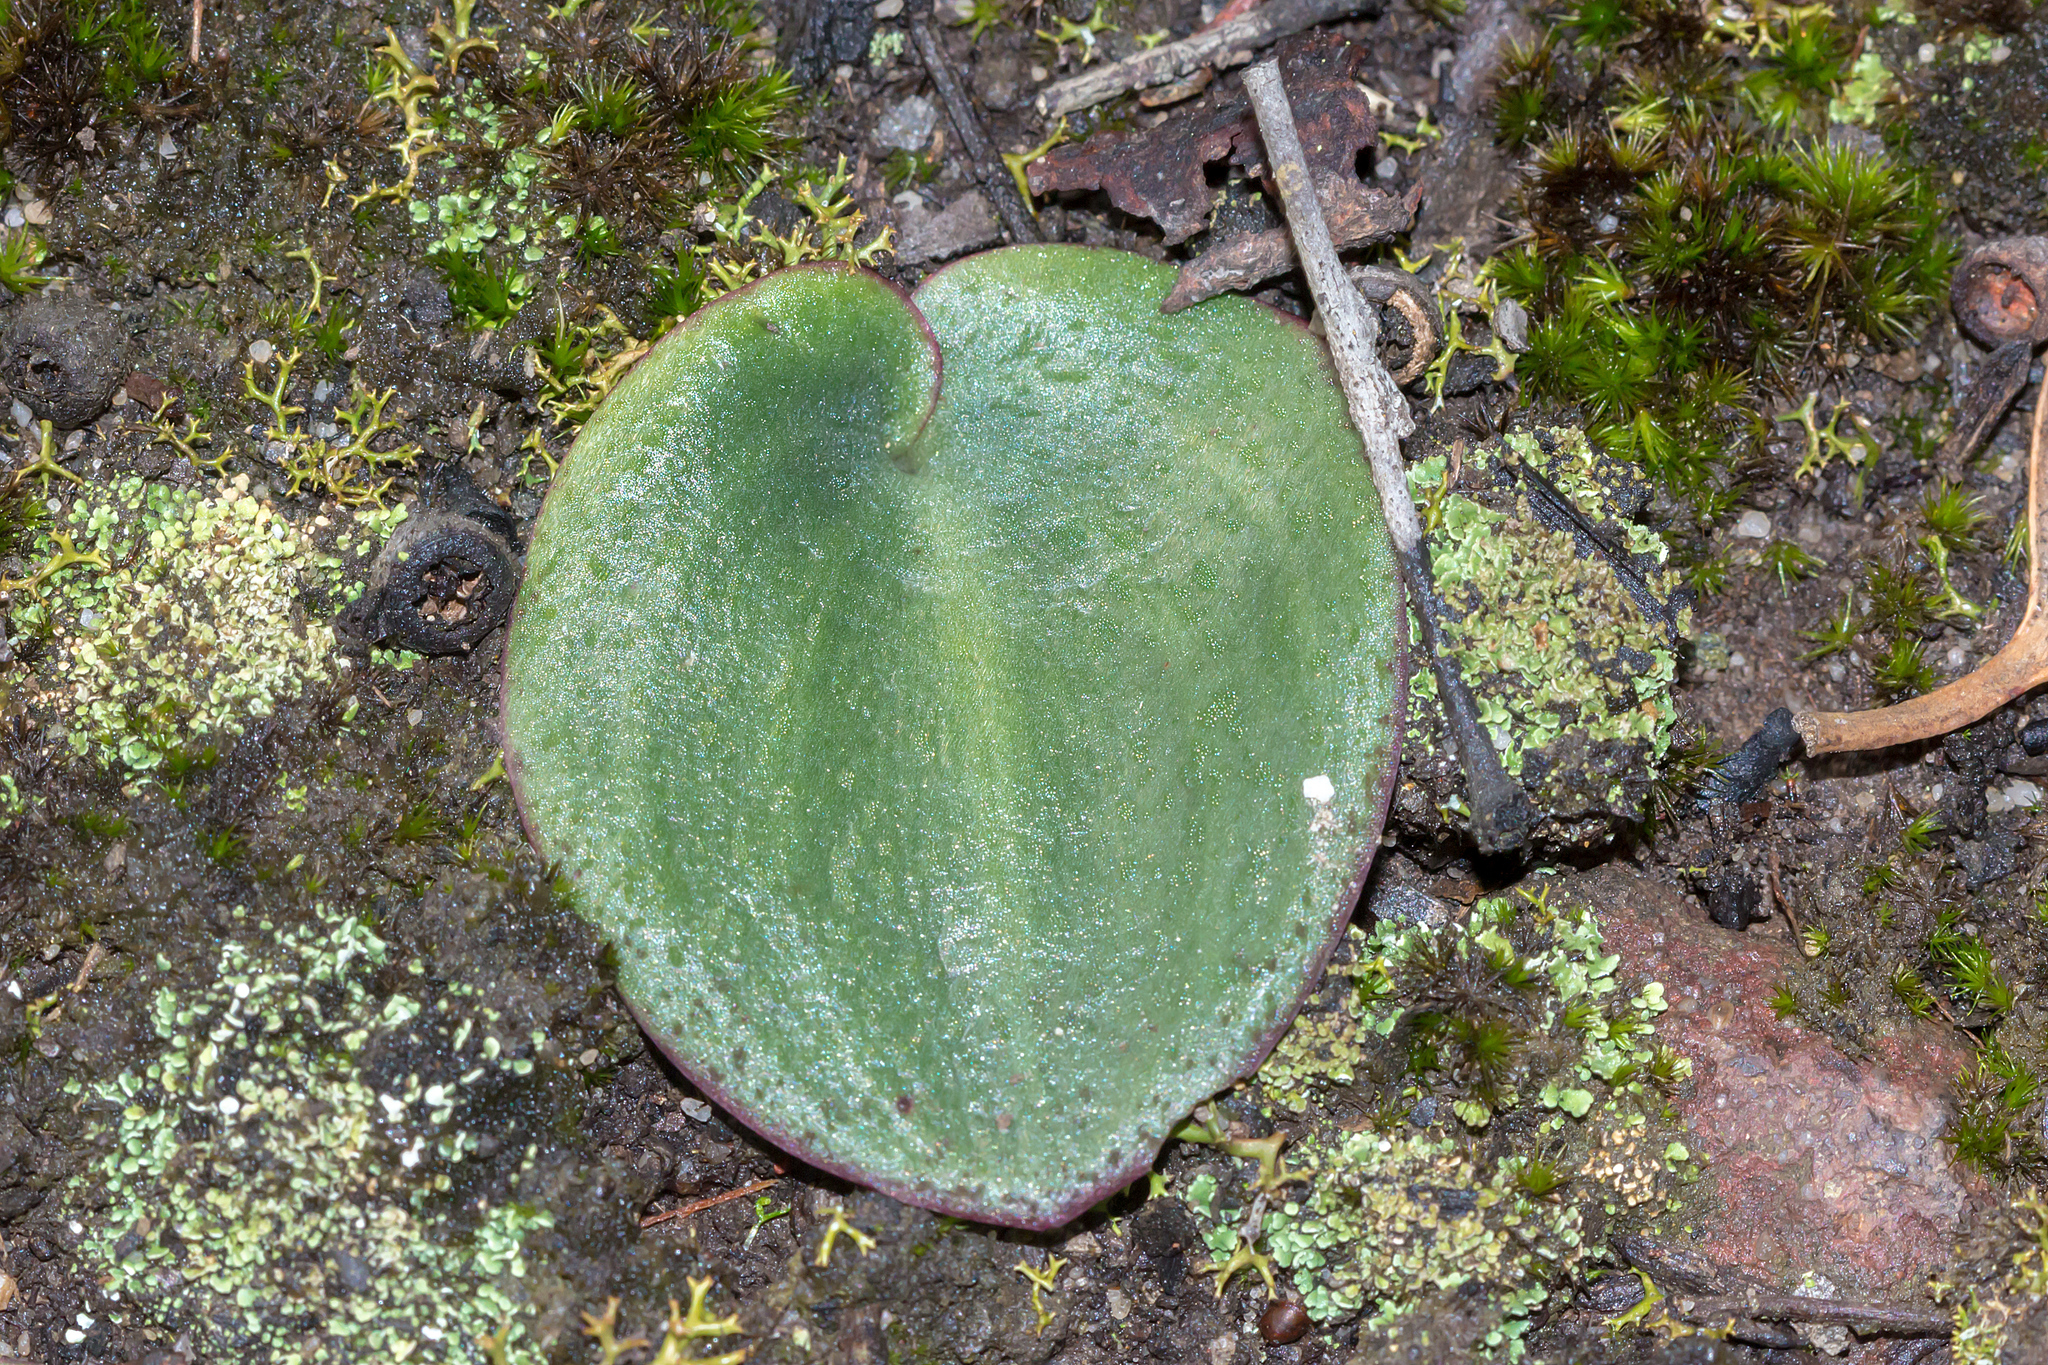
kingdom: Plantae
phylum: Tracheophyta
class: Liliopsida
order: Asparagales
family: Orchidaceae
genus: Pyrorchis
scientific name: Pyrorchis nigricans
